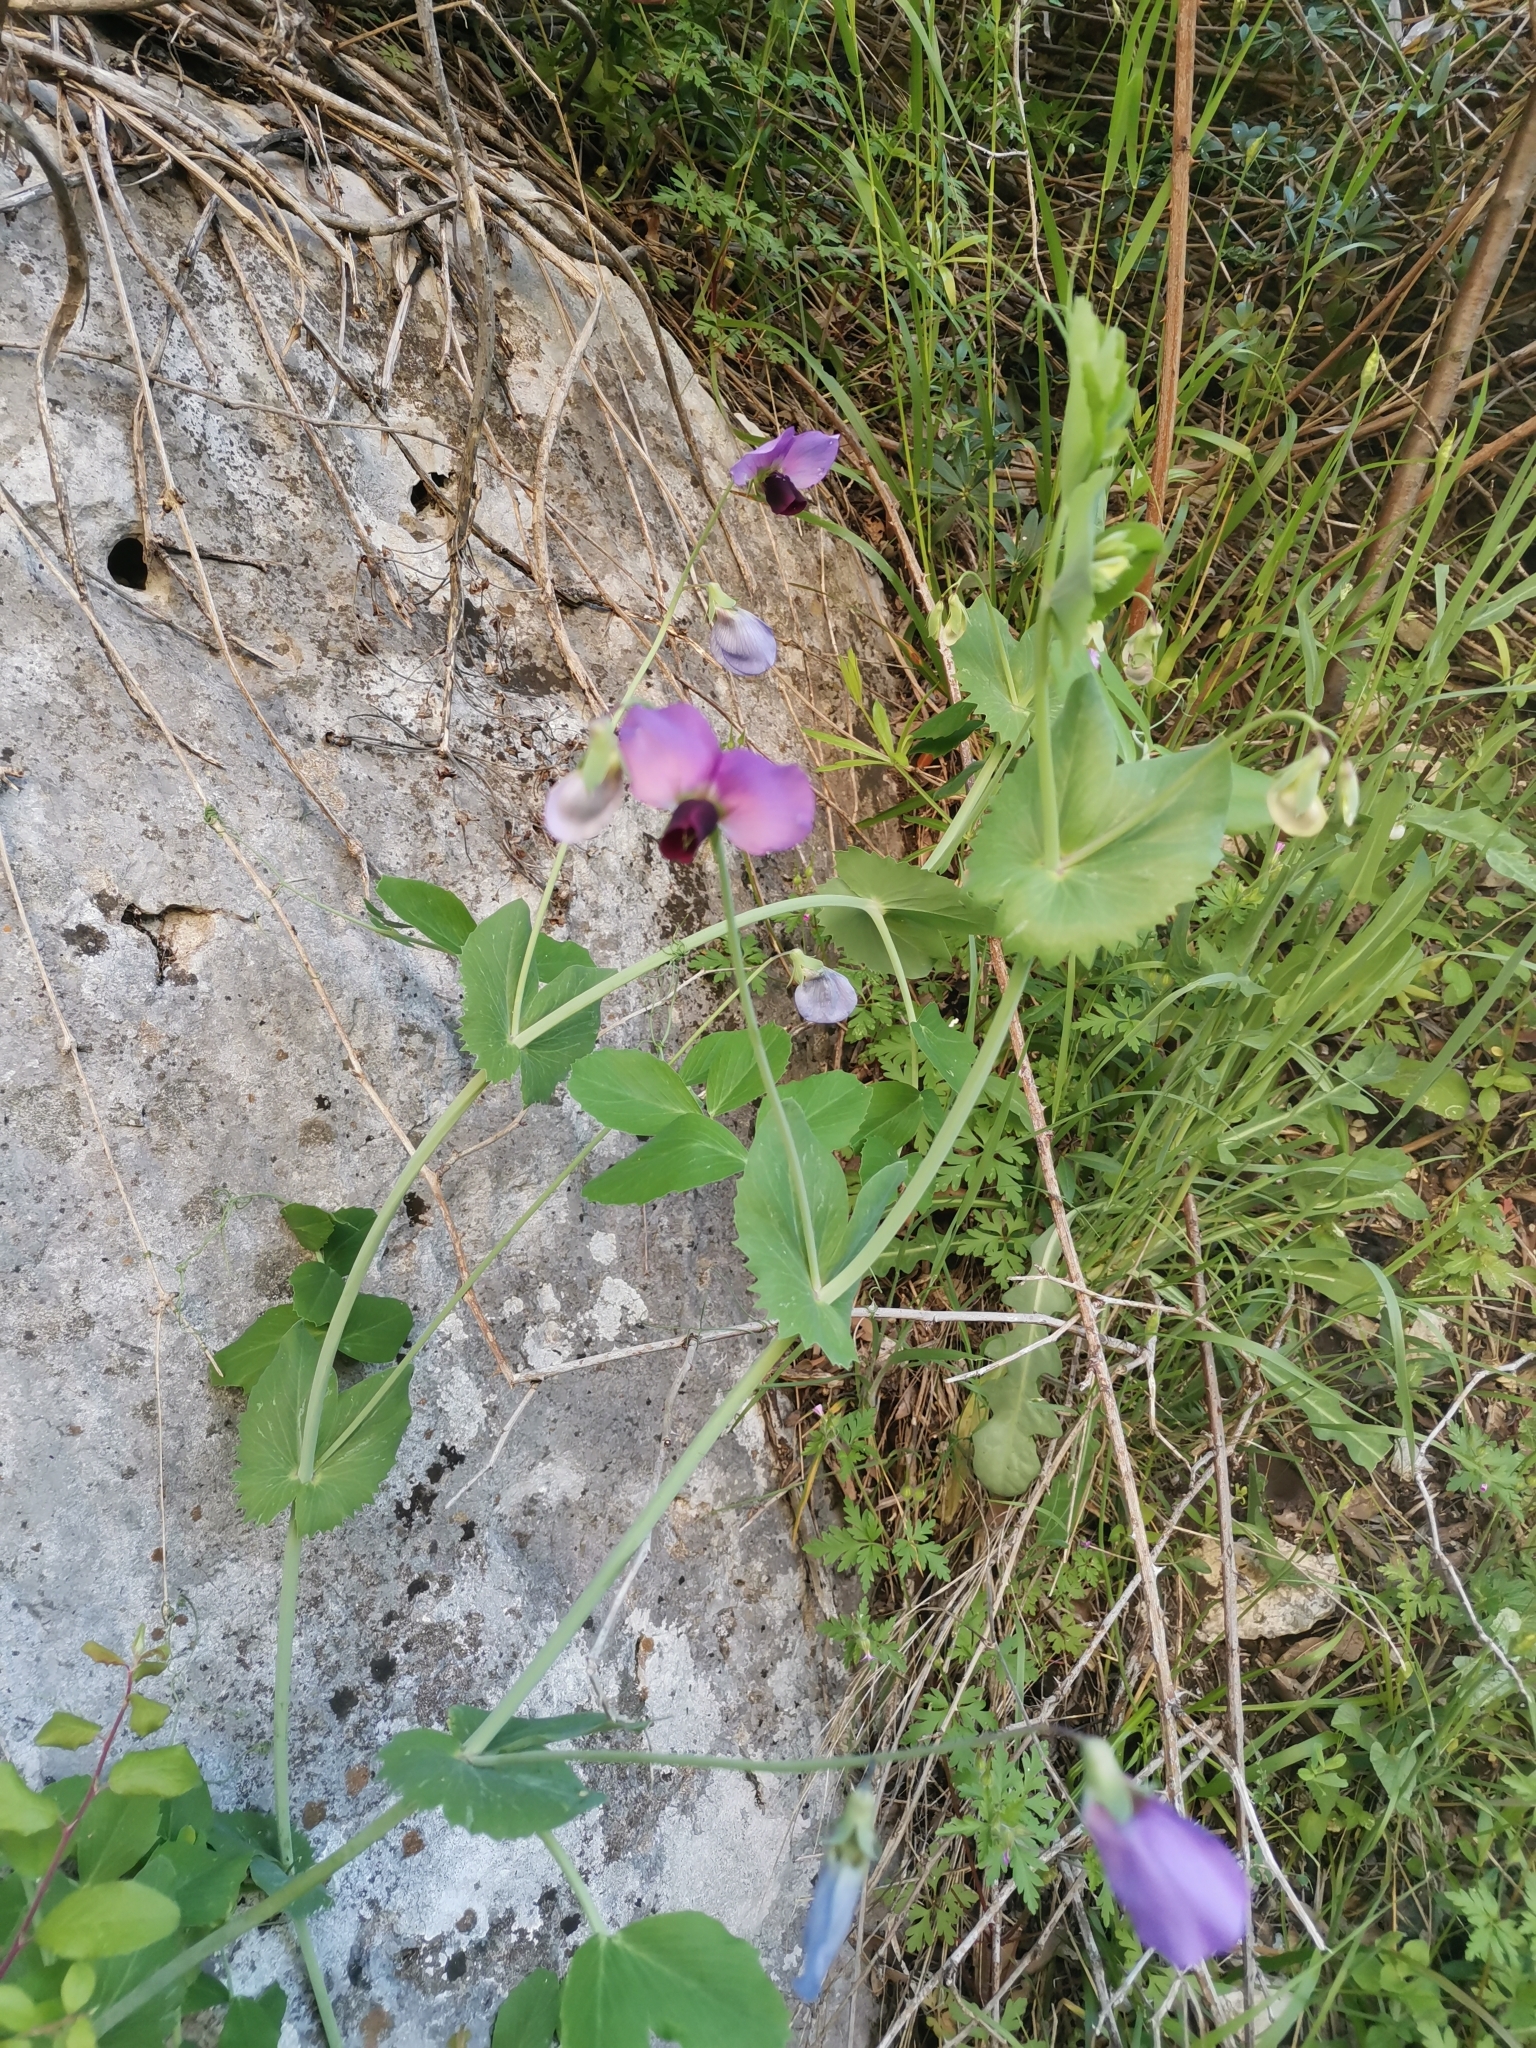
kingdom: Plantae
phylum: Tracheophyta
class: Magnoliopsida
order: Fabales
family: Fabaceae
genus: Lathyrus
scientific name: Lathyrus oleraceus
